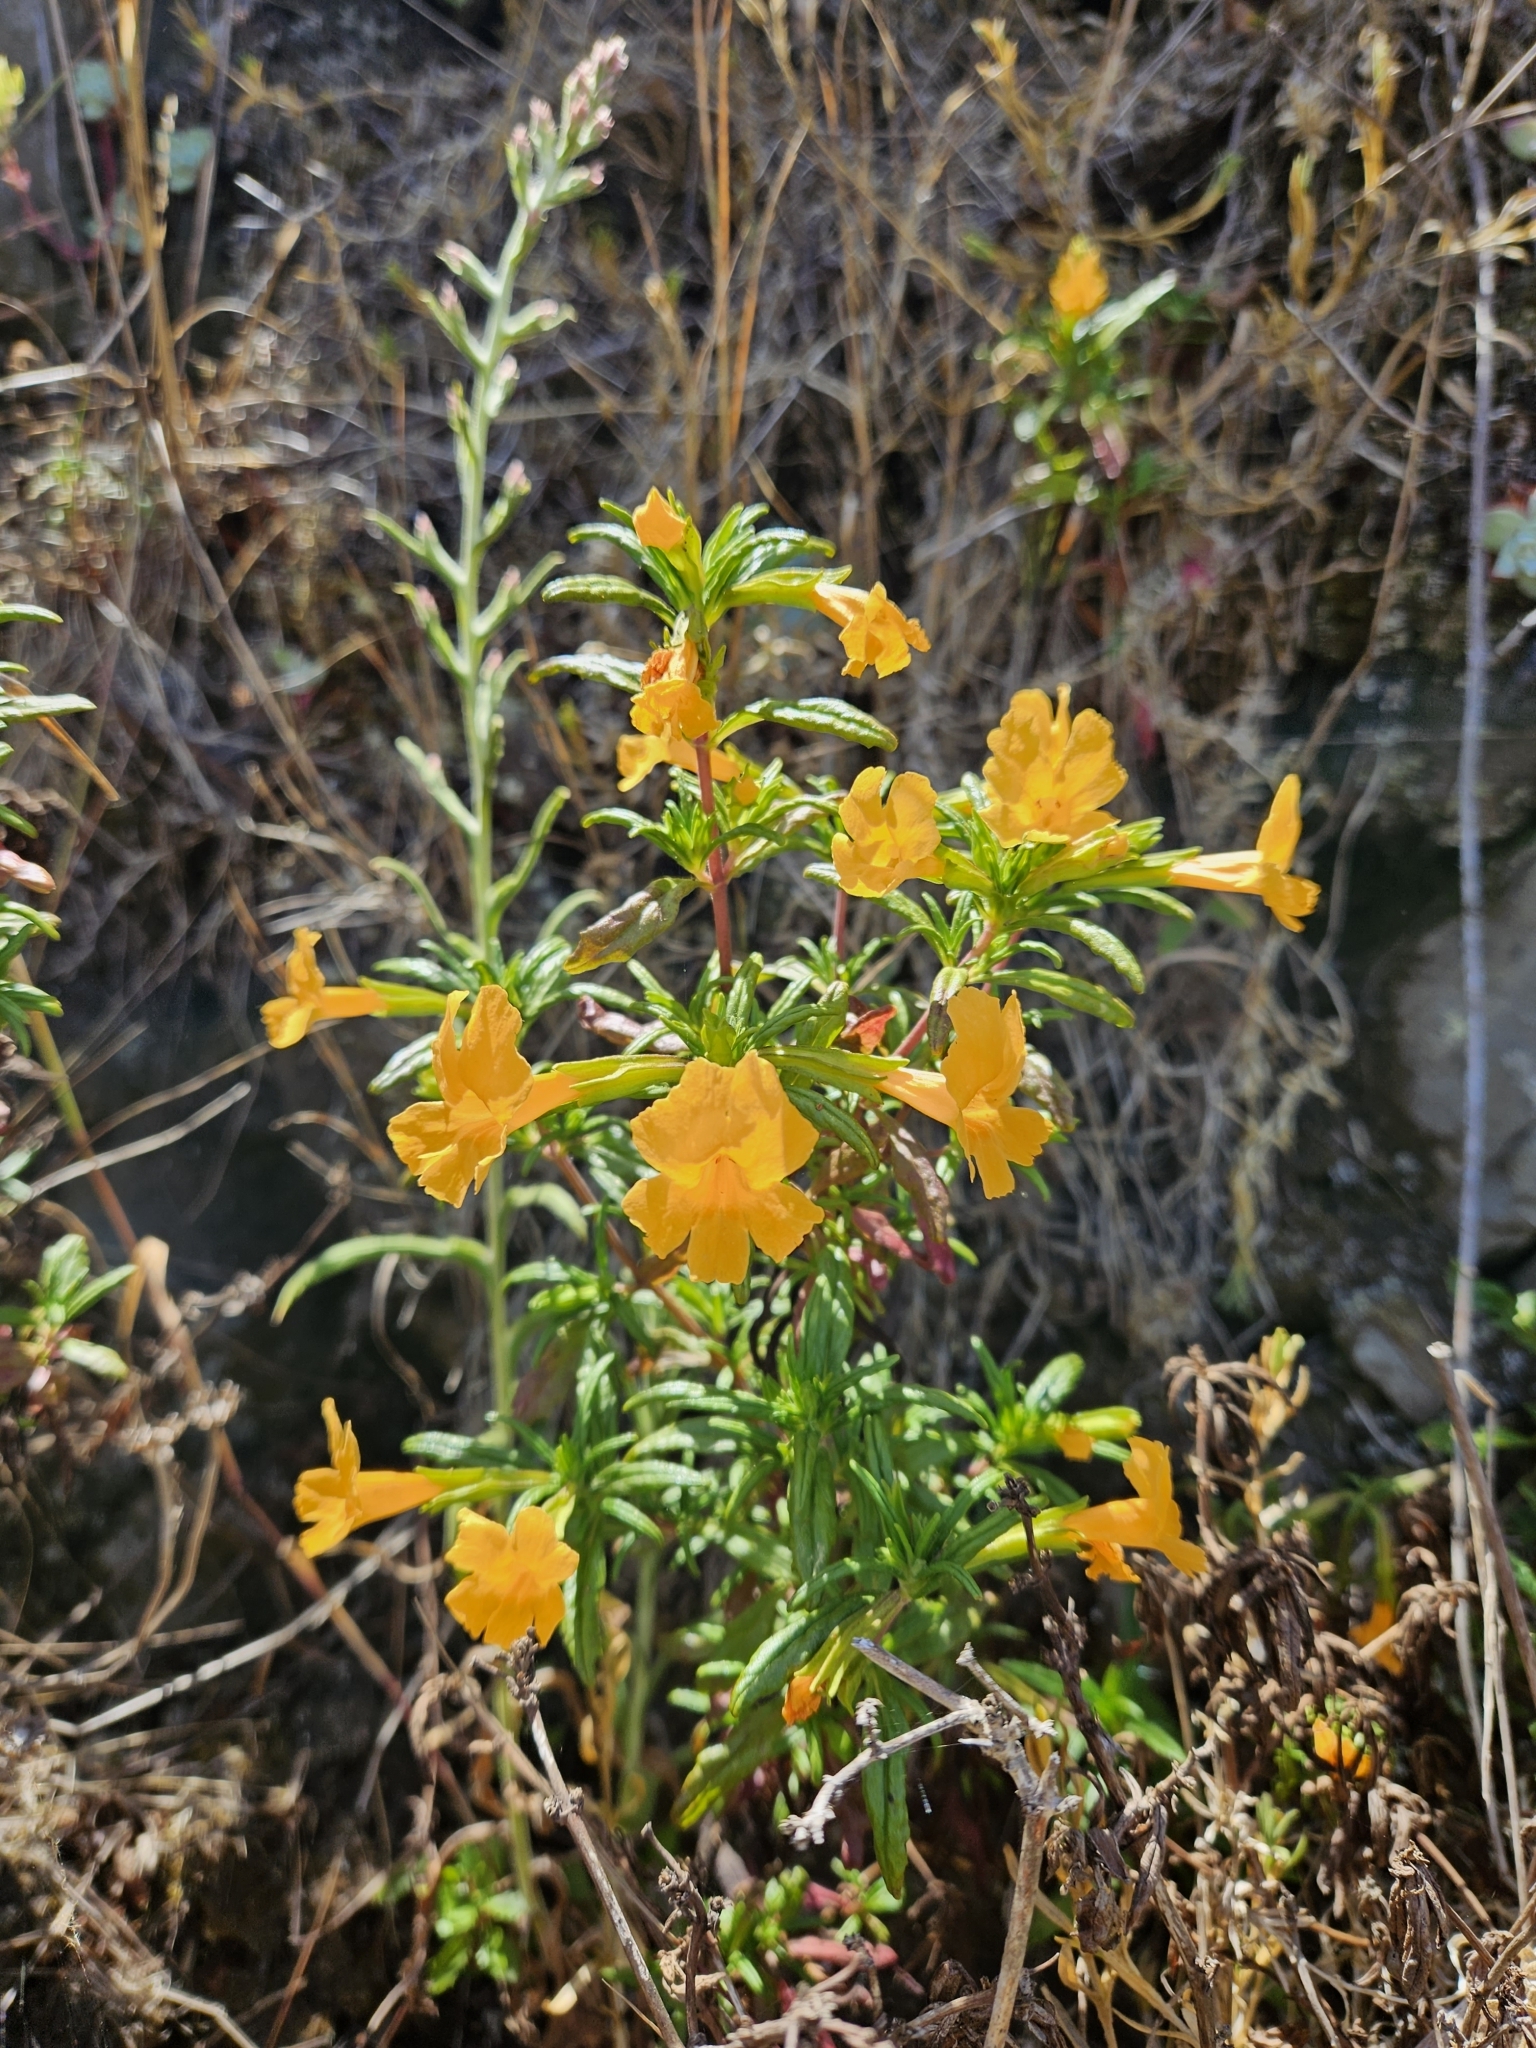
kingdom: Plantae
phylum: Tracheophyta
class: Magnoliopsida
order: Lamiales
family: Phrymaceae
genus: Diplacus
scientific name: Diplacus aurantiacus
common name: Bush monkey-flower
